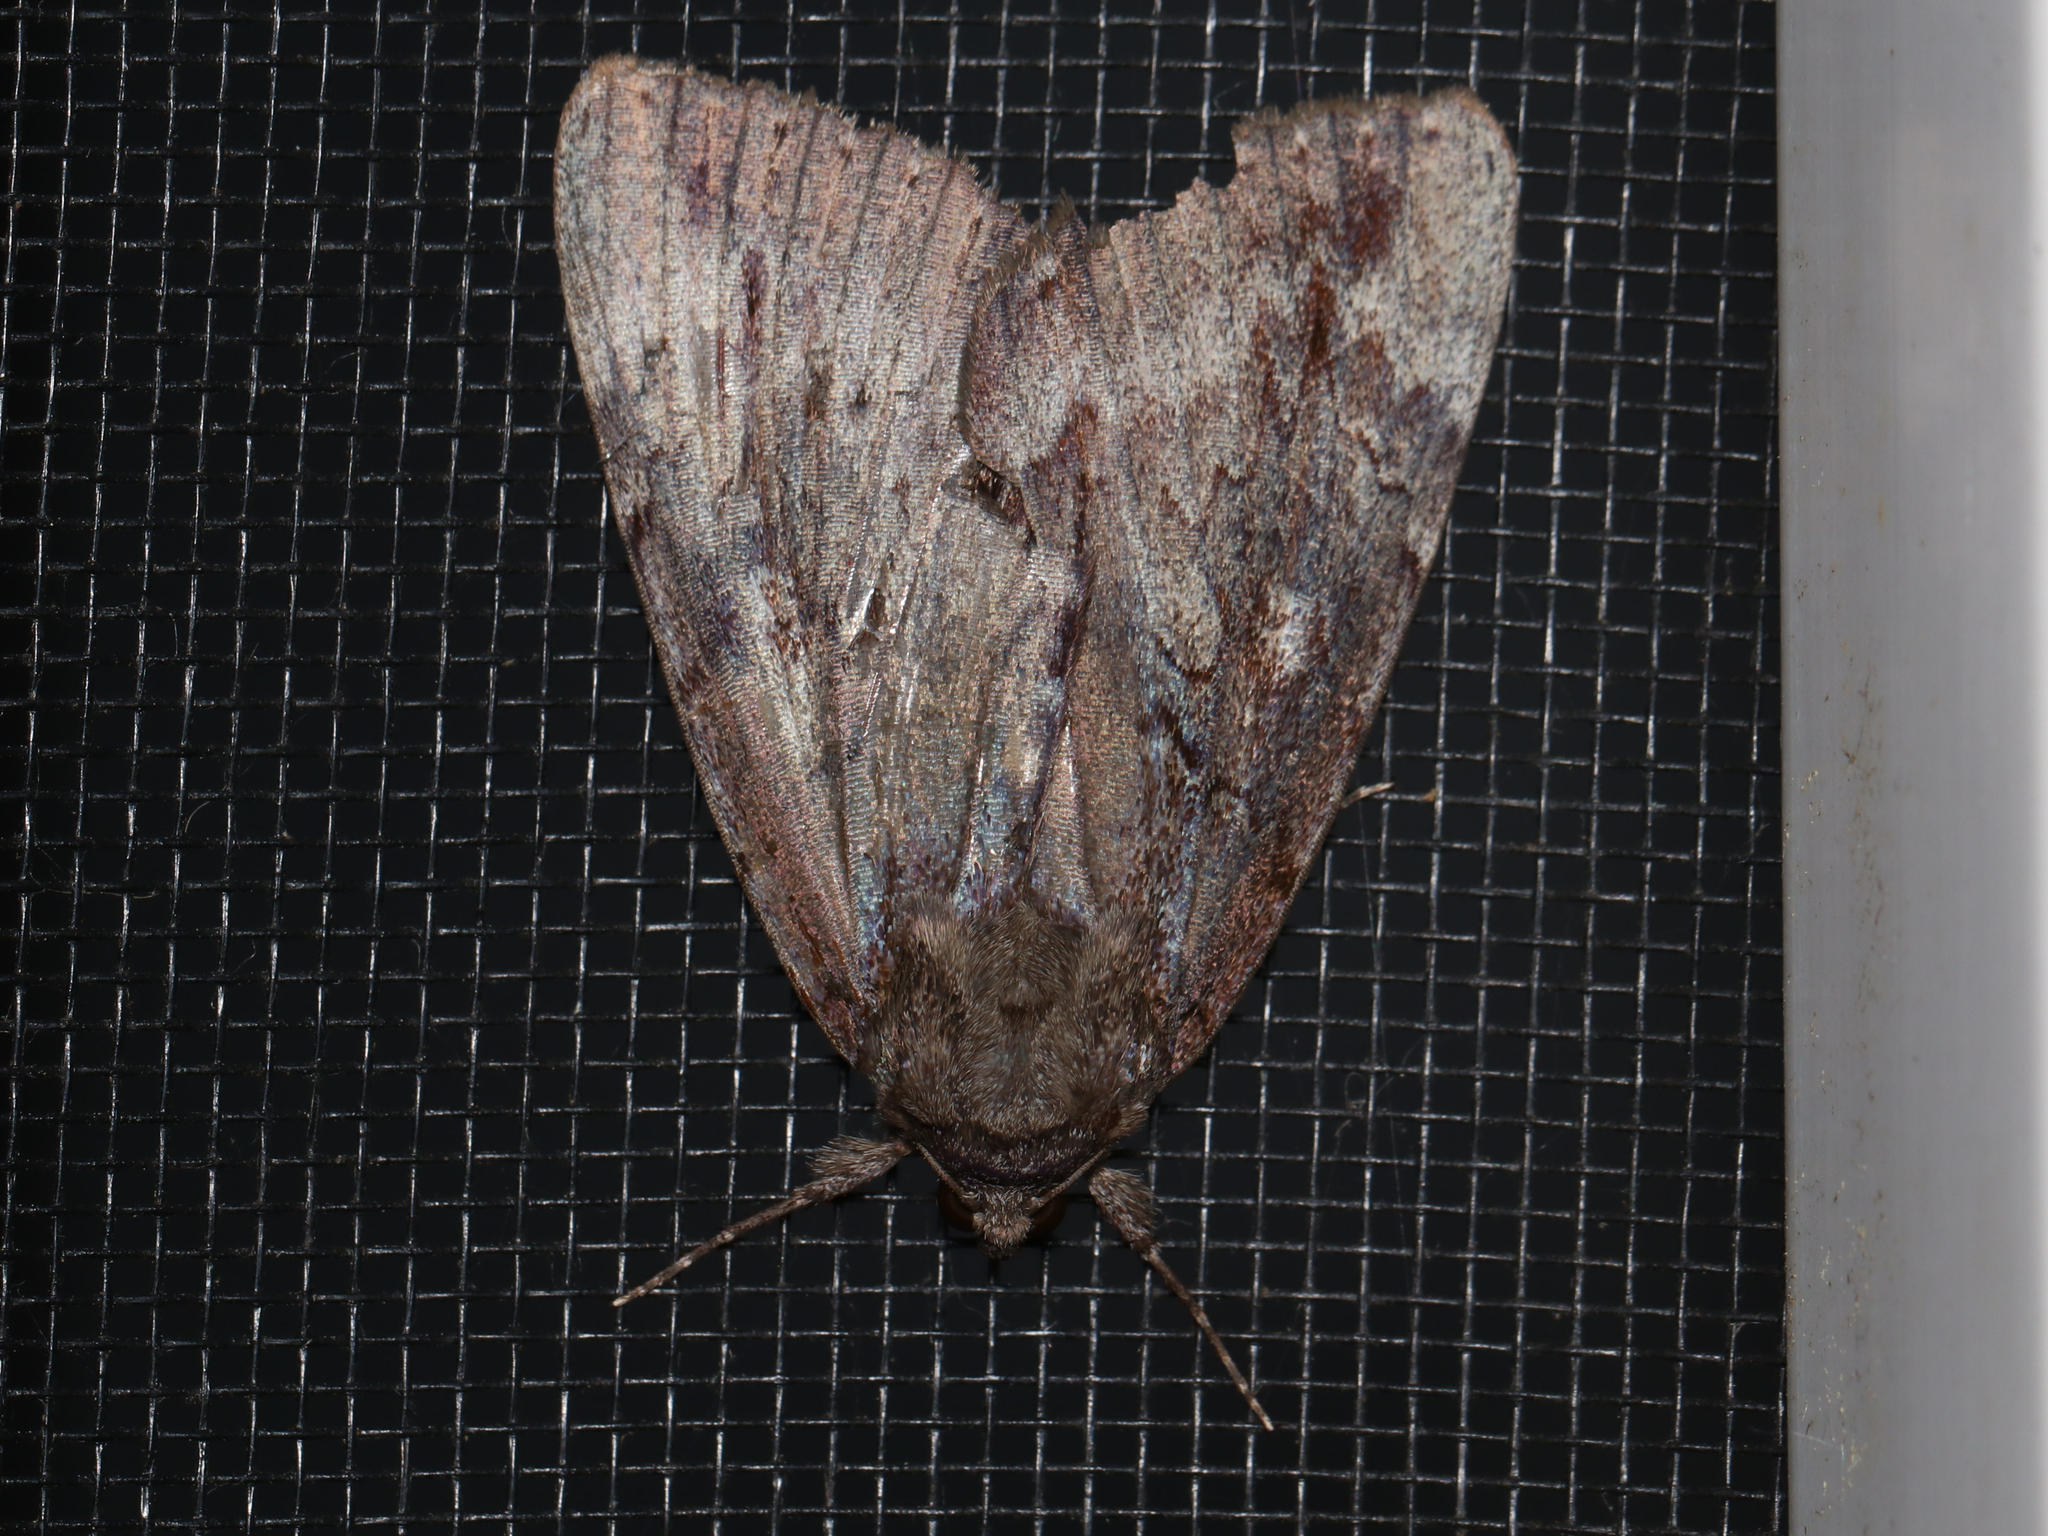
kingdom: Animalia
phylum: Arthropoda
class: Insecta
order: Lepidoptera
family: Erebidae
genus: Catocala
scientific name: Catocala residua
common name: Residua underwing
